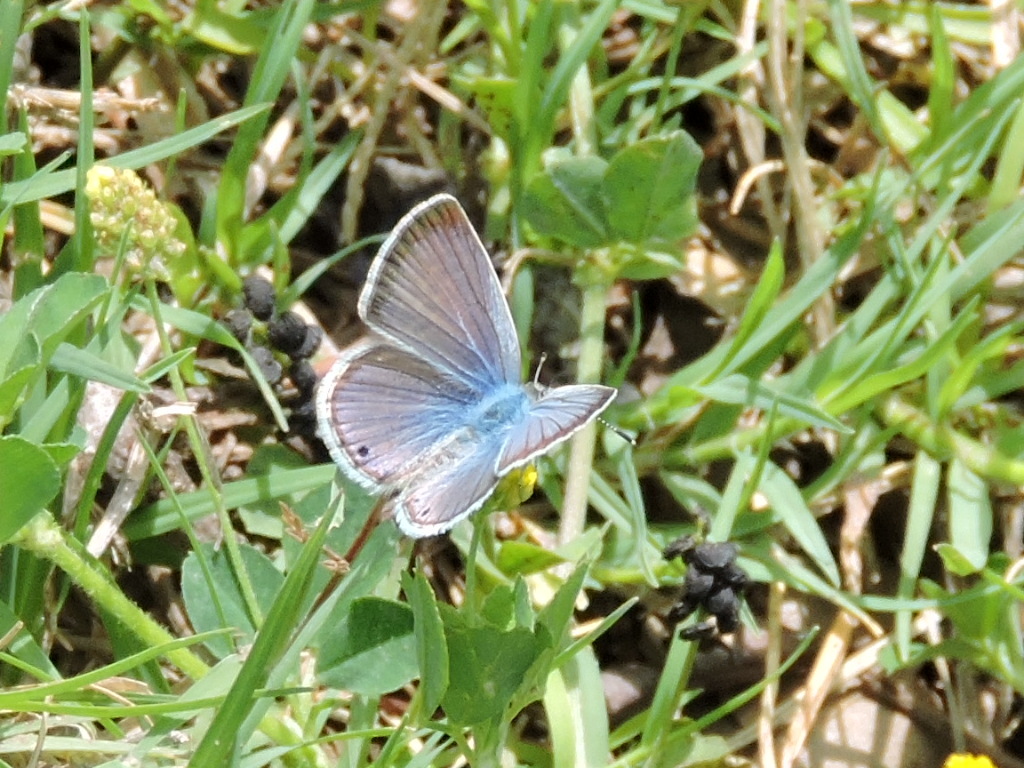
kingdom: Animalia
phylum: Arthropoda
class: Insecta
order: Lepidoptera
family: Lycaenidae
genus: Echinargus
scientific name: Echinargus isola
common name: Reakirt's blue
